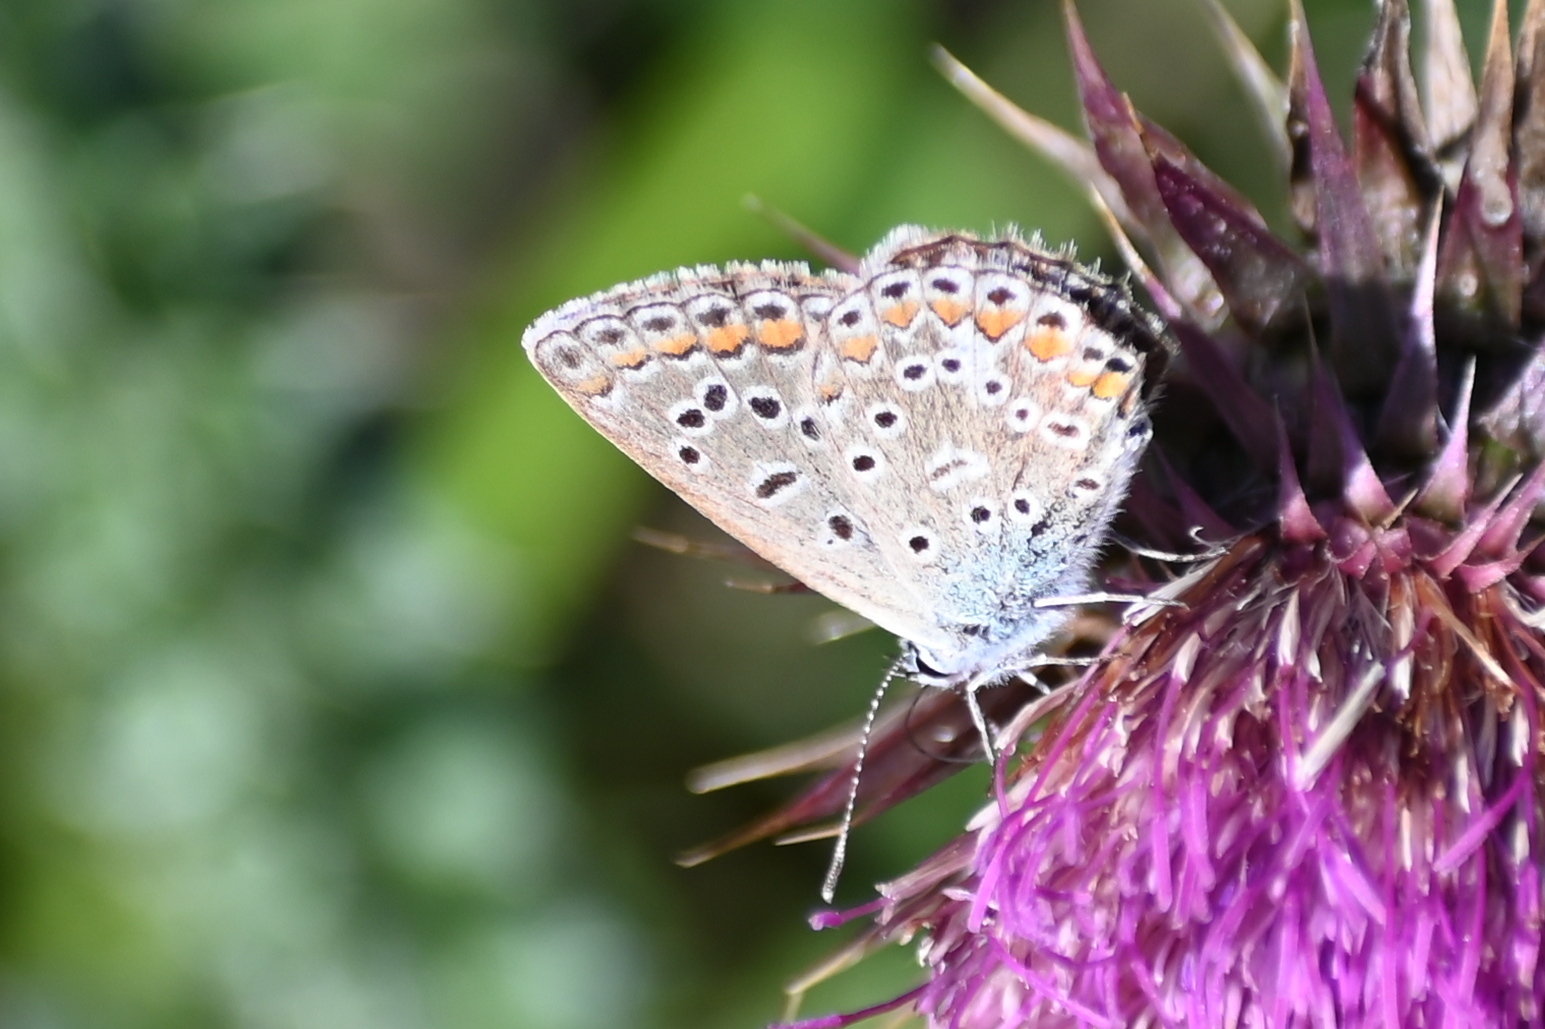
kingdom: Animalia
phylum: Arthropoda
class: Insecta
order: Lepidoptera
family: Lycaenidae
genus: Polyommatus
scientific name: Polyommatus icarus
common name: Common blue
